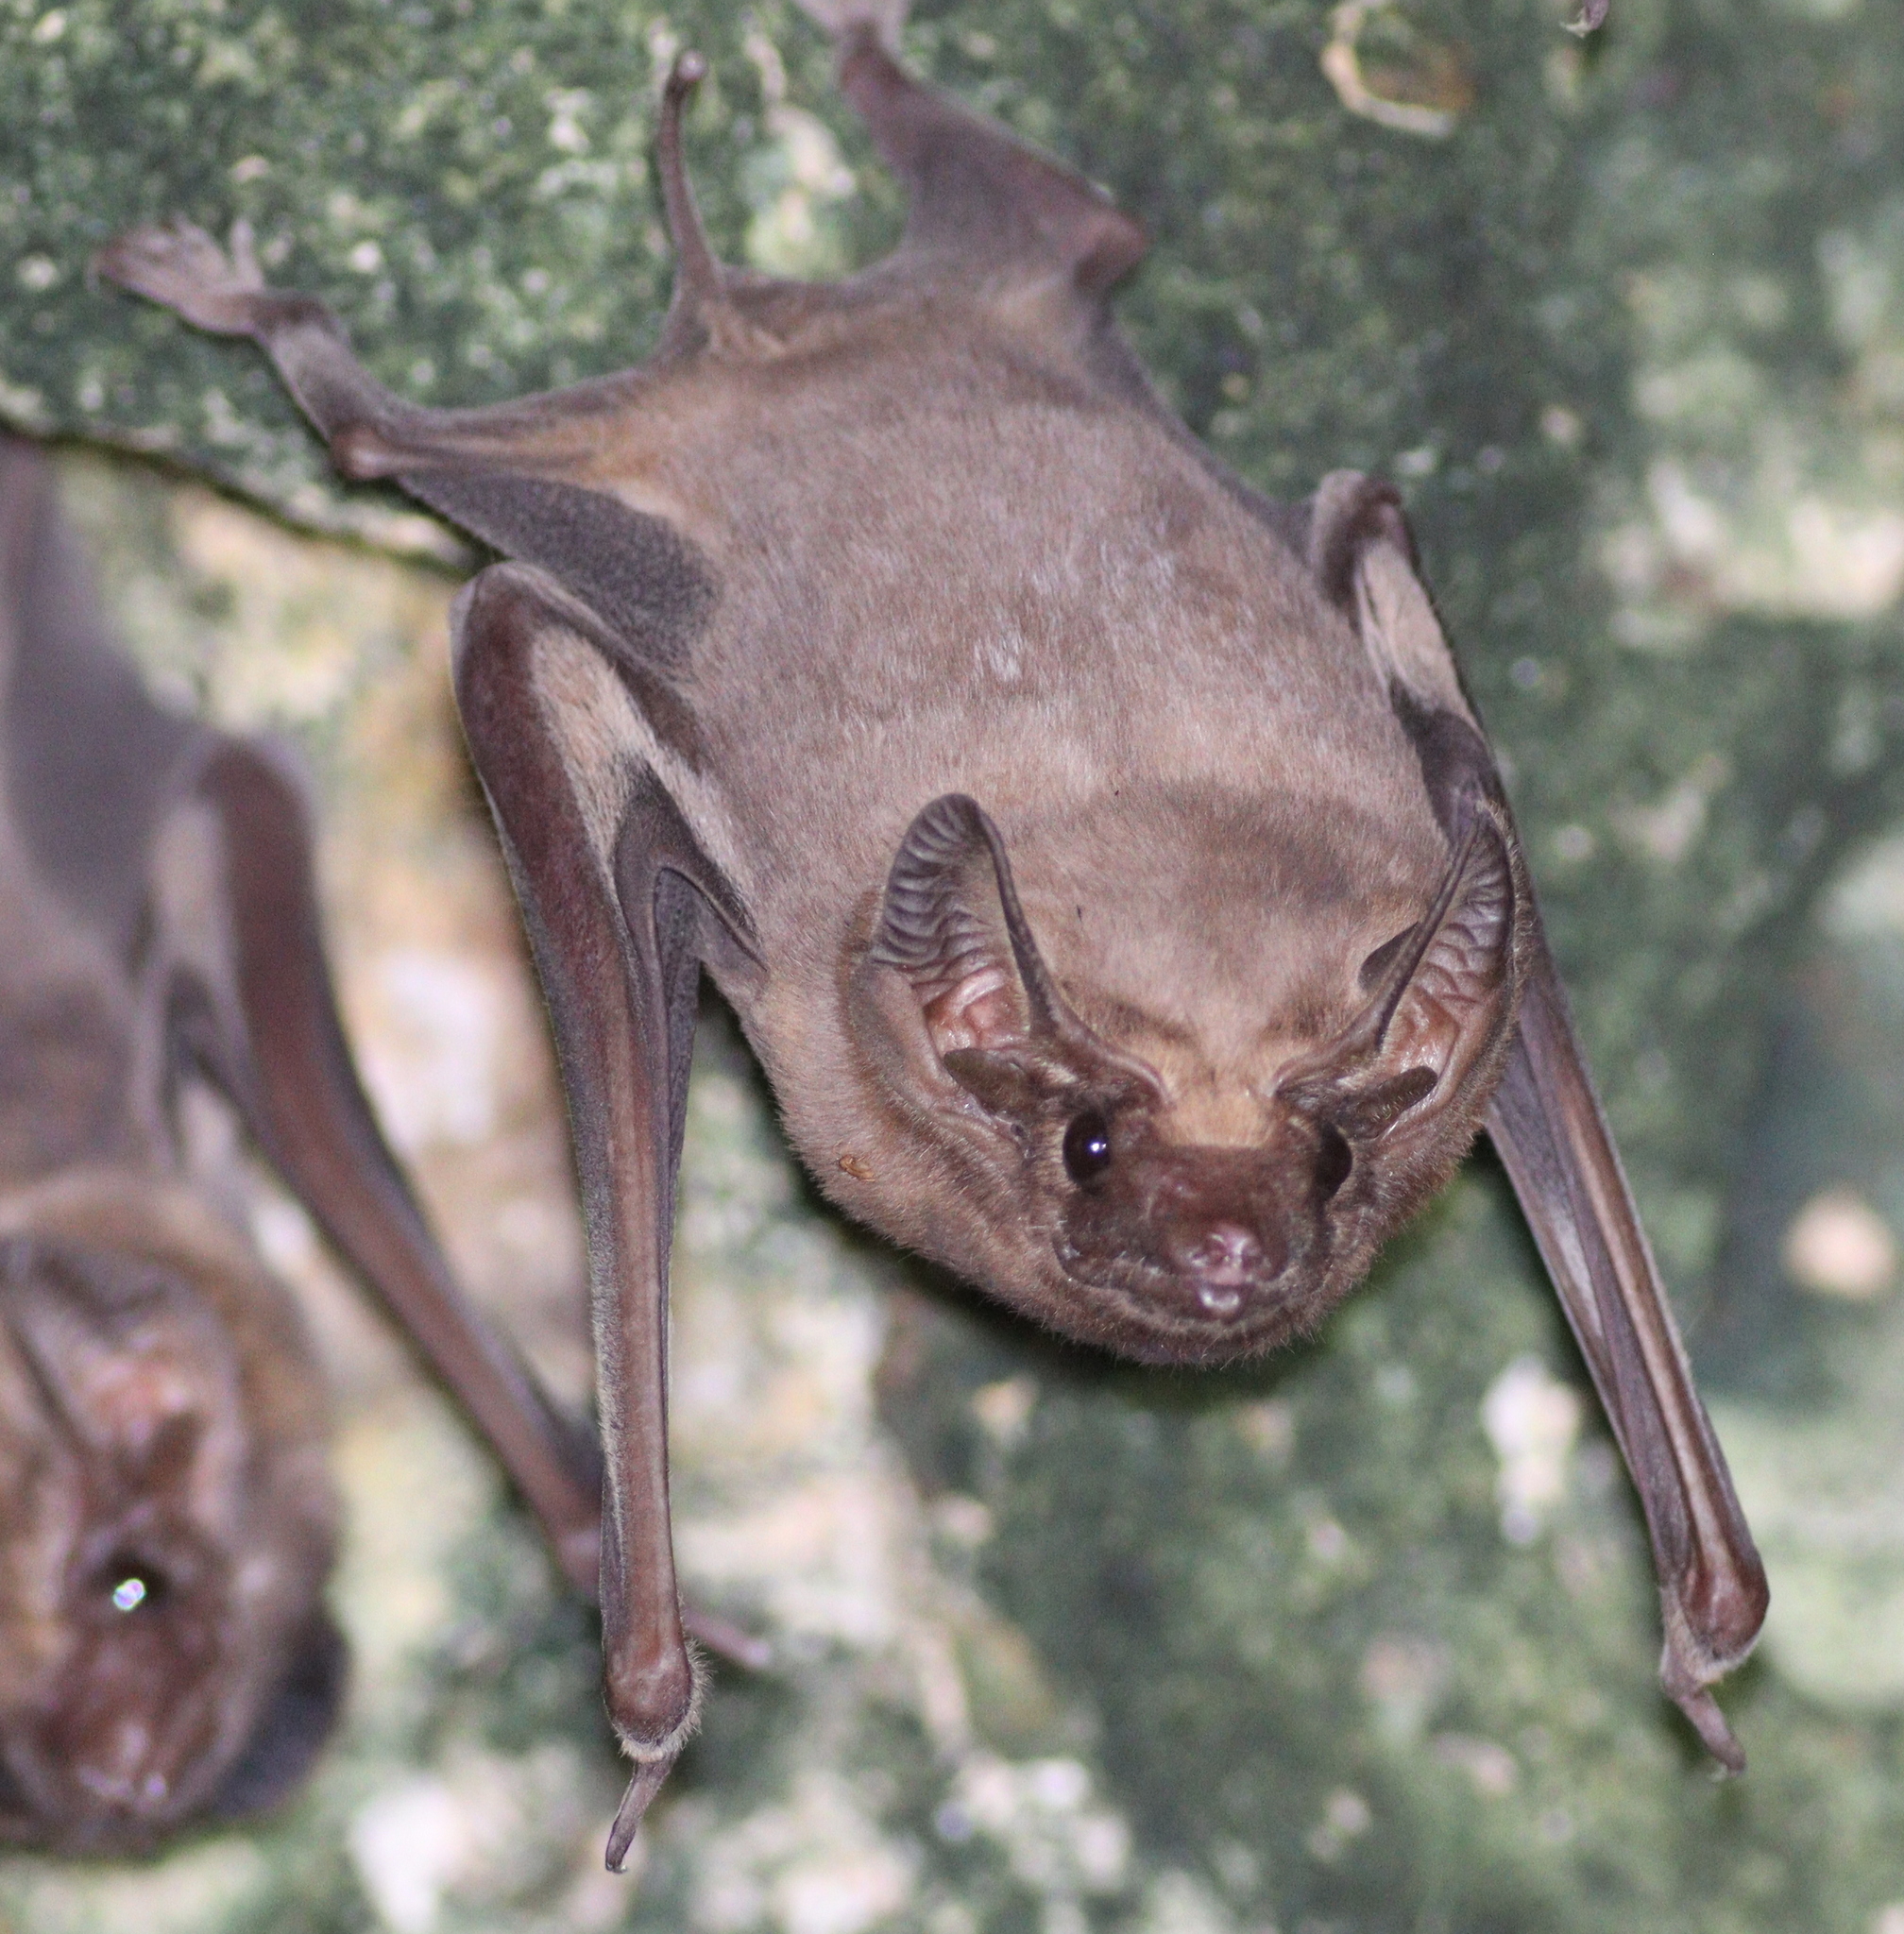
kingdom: Animalia
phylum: Chordata
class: Mammalia
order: Chiroptera
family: Emballonuridae
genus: Taphozous
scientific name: Taphozous melanopogon
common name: Black-bearded tomb bat
